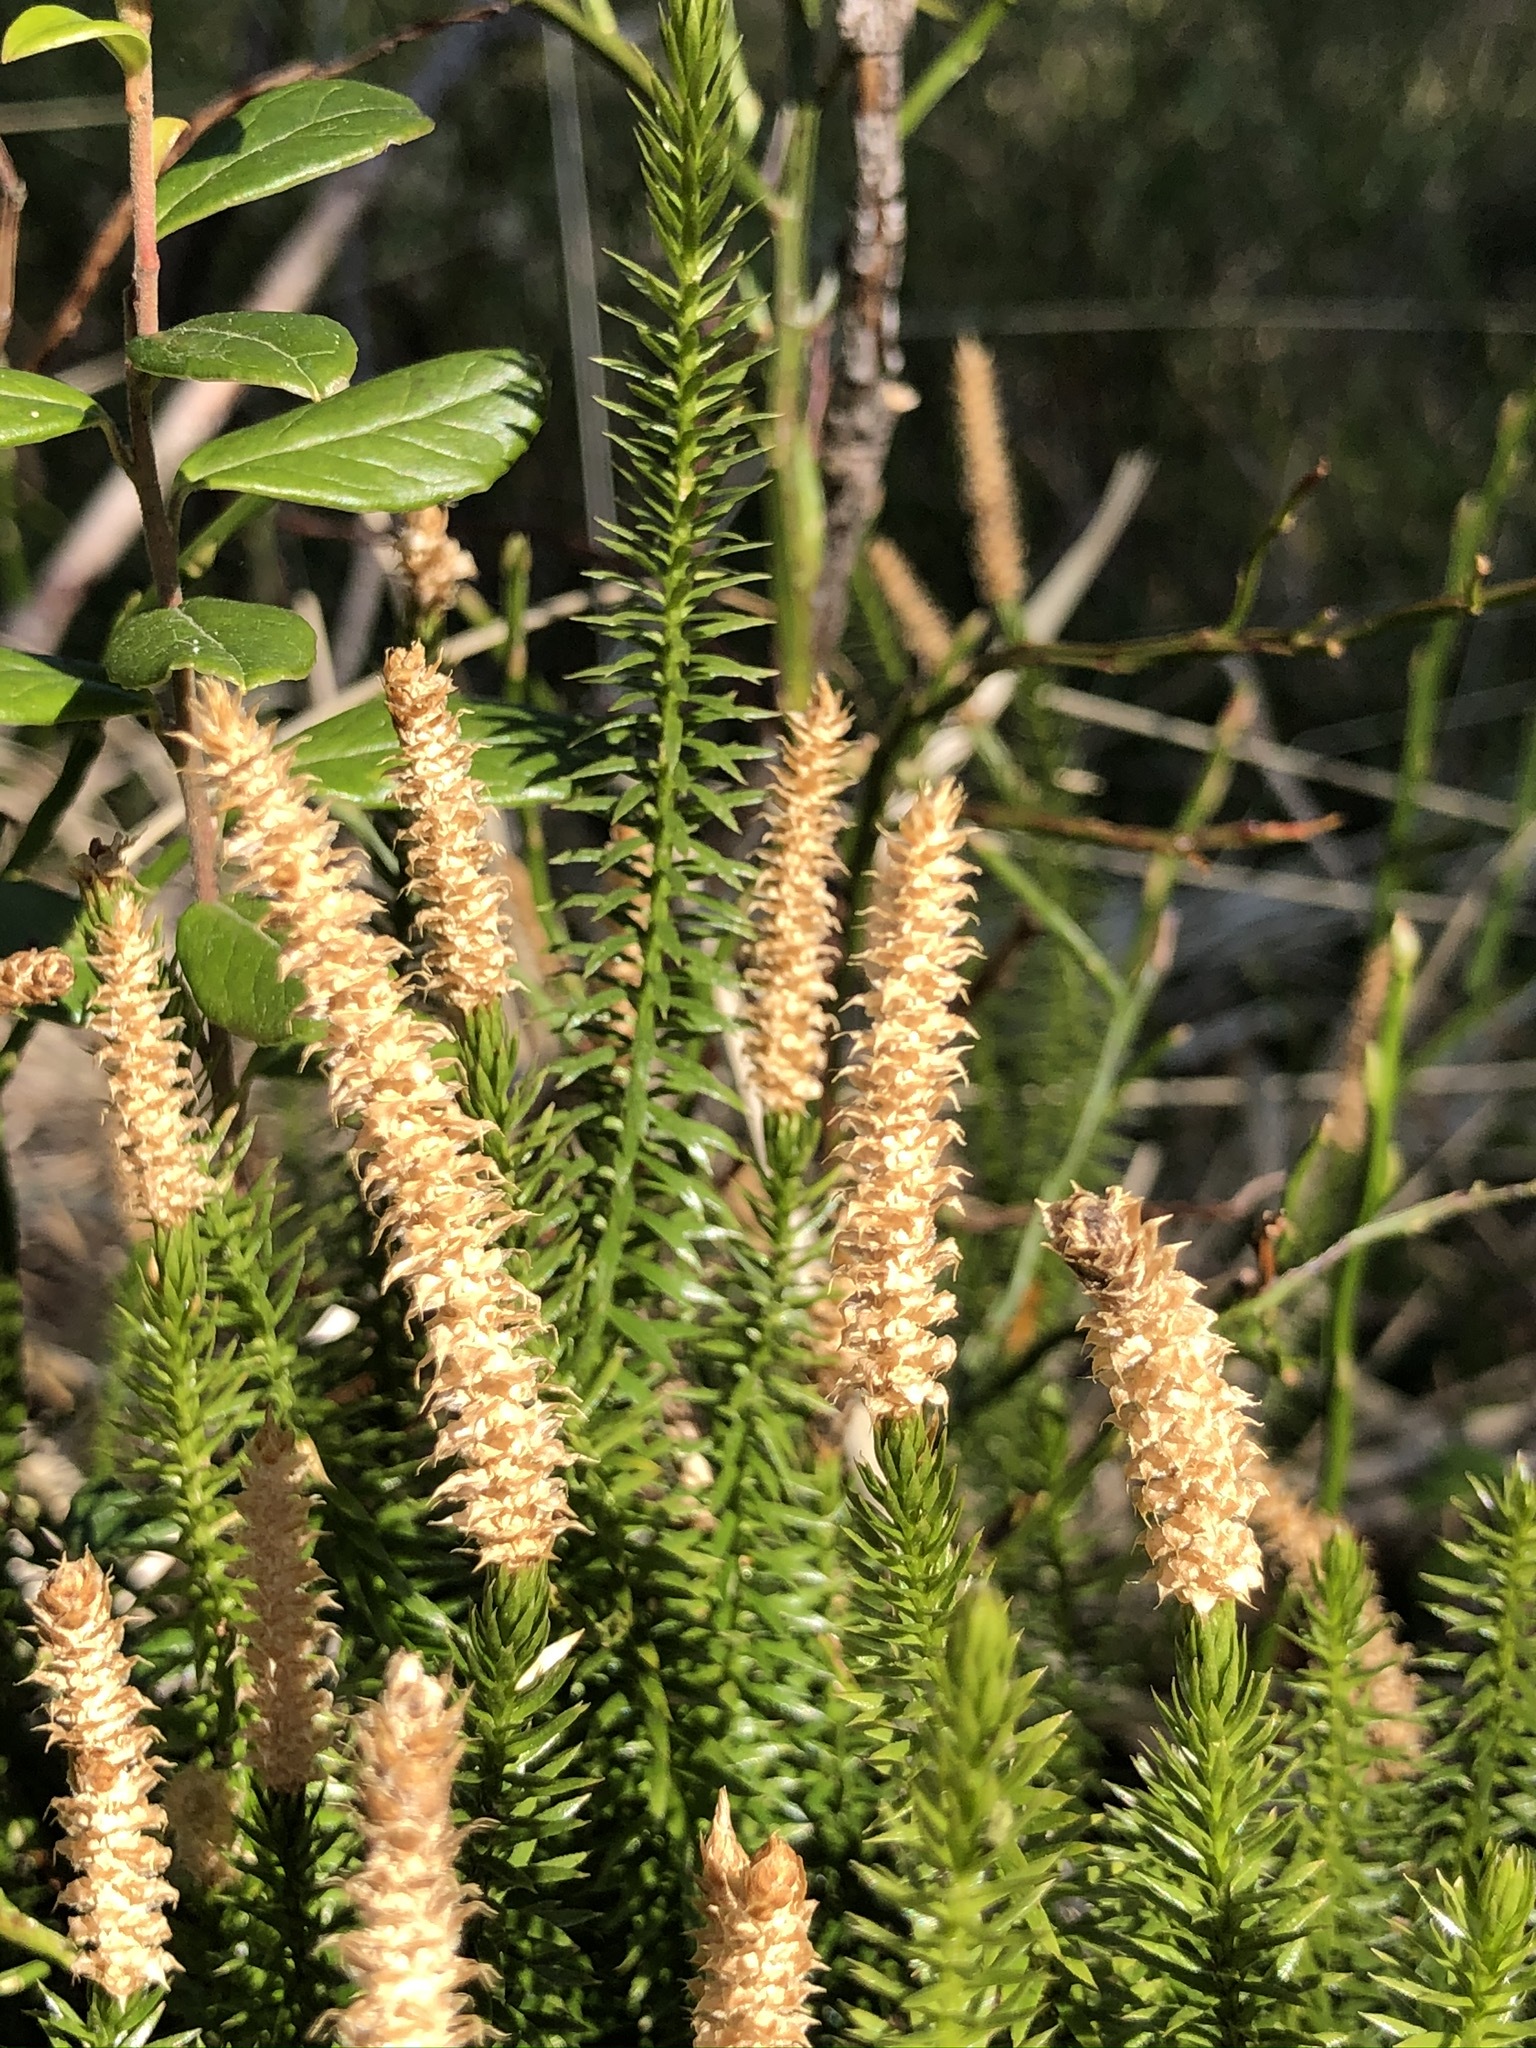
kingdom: Plantae
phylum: Tracheophyta
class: Lycopodiopsida
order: Lycopodiales
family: Lycopodiaceae
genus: Spinulum
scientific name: Spinulum annotinum
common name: Interrupted club-moss
